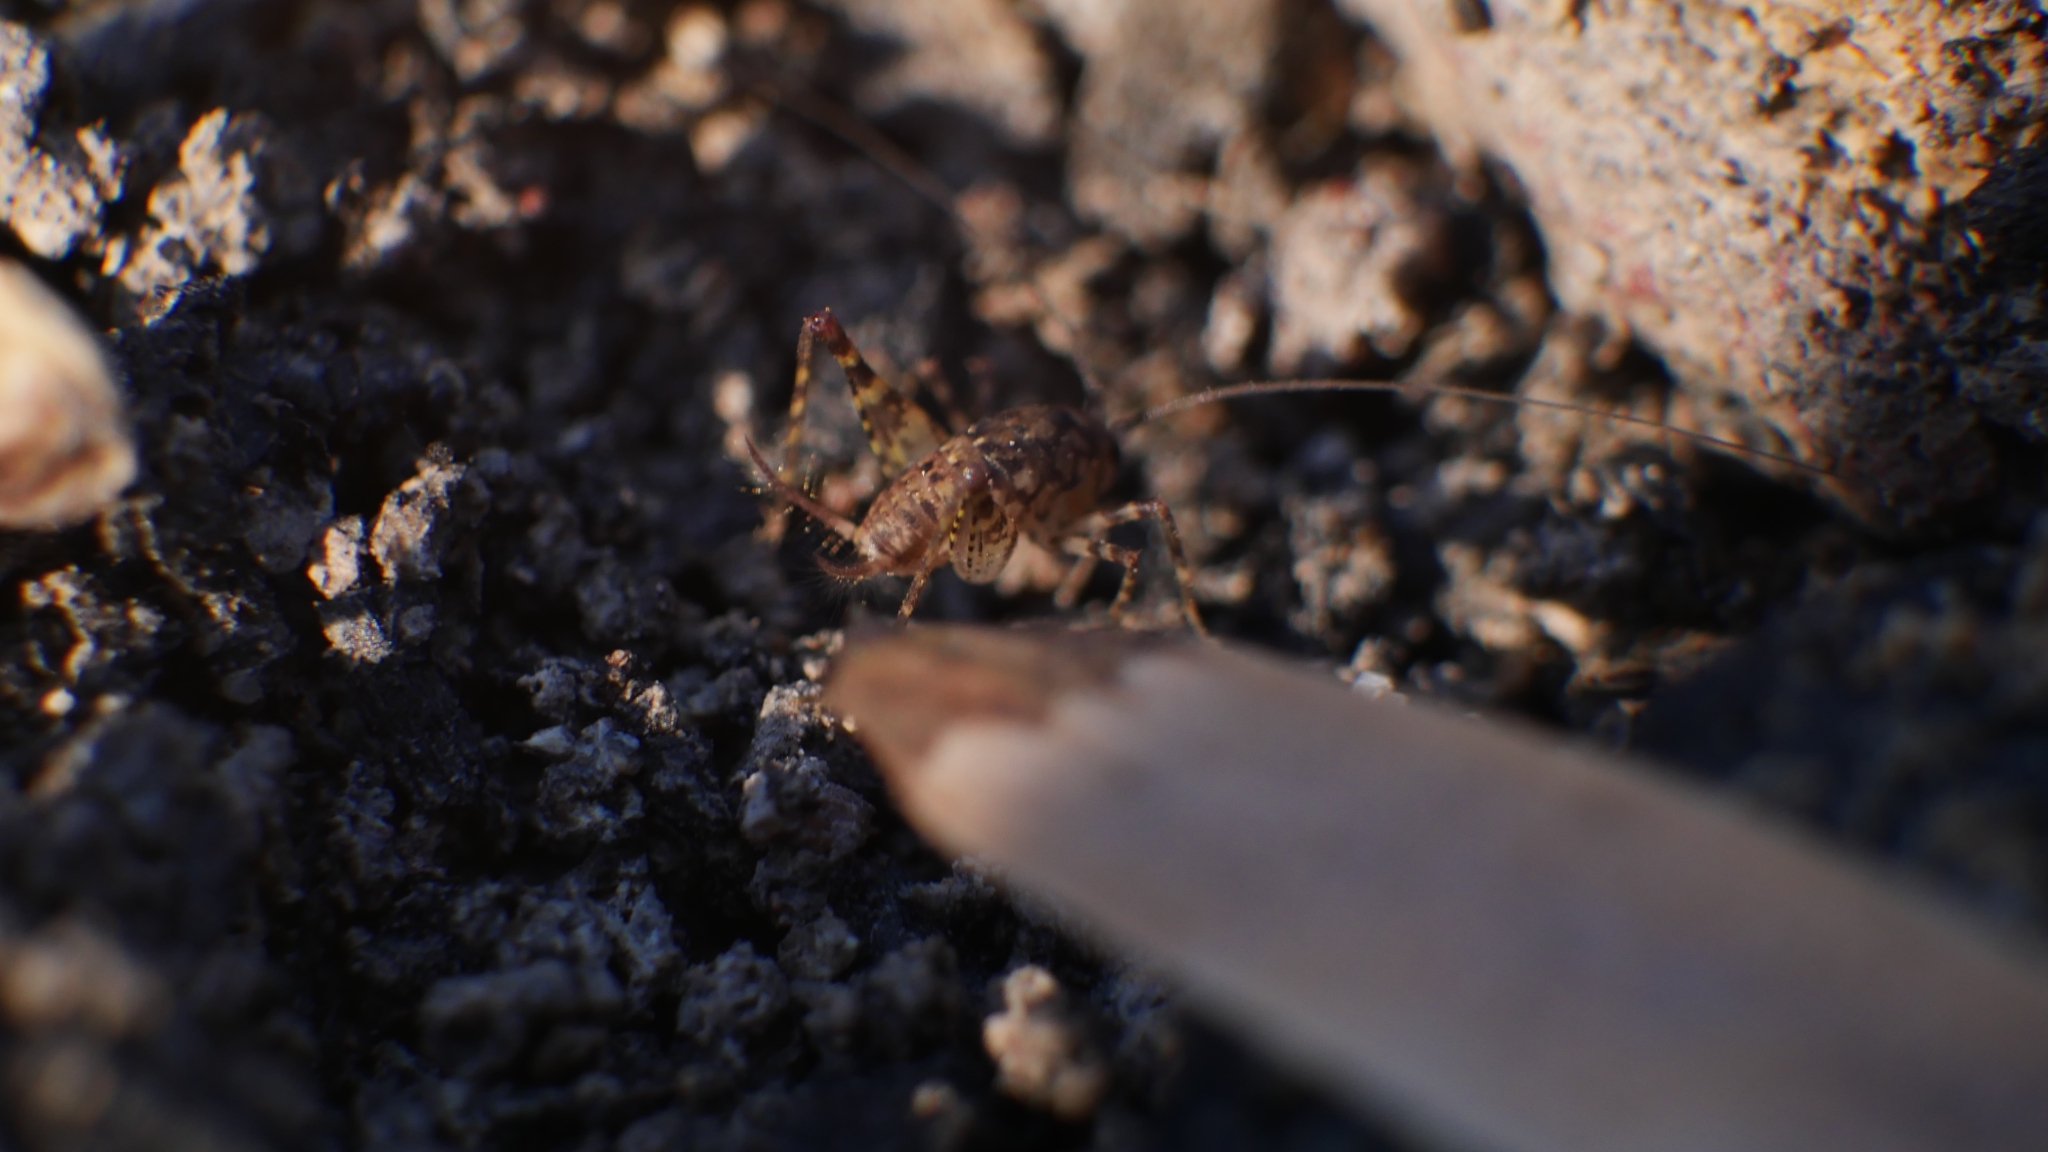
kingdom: Animalia
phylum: Arthropoda
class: Insecta
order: Orthoptera
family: Rhaphidophoridae
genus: Tachycines
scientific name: Tachycines asynamorus
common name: Greenhouse camel cricket
